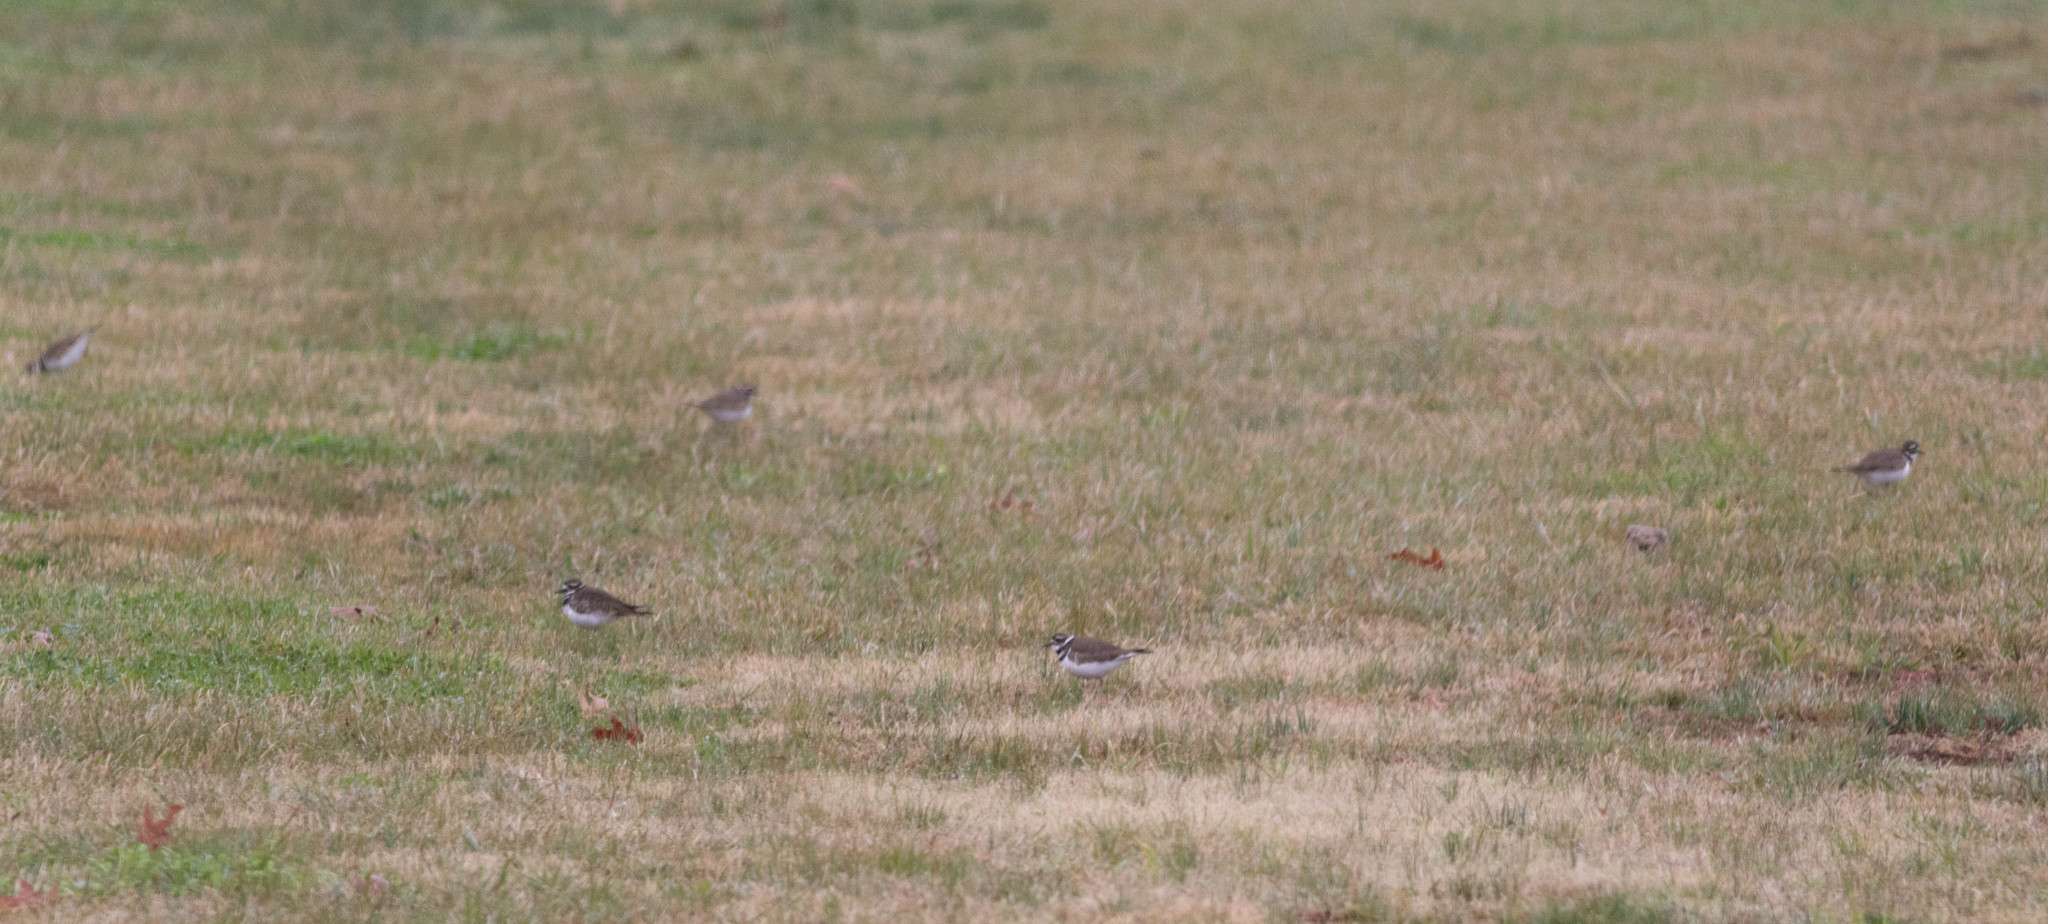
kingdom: Animalia
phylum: Chordata
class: Aves
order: Charadriiformes
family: Charadriidae
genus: Charadrius
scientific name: Charadrius vociferus
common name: Killdeer
